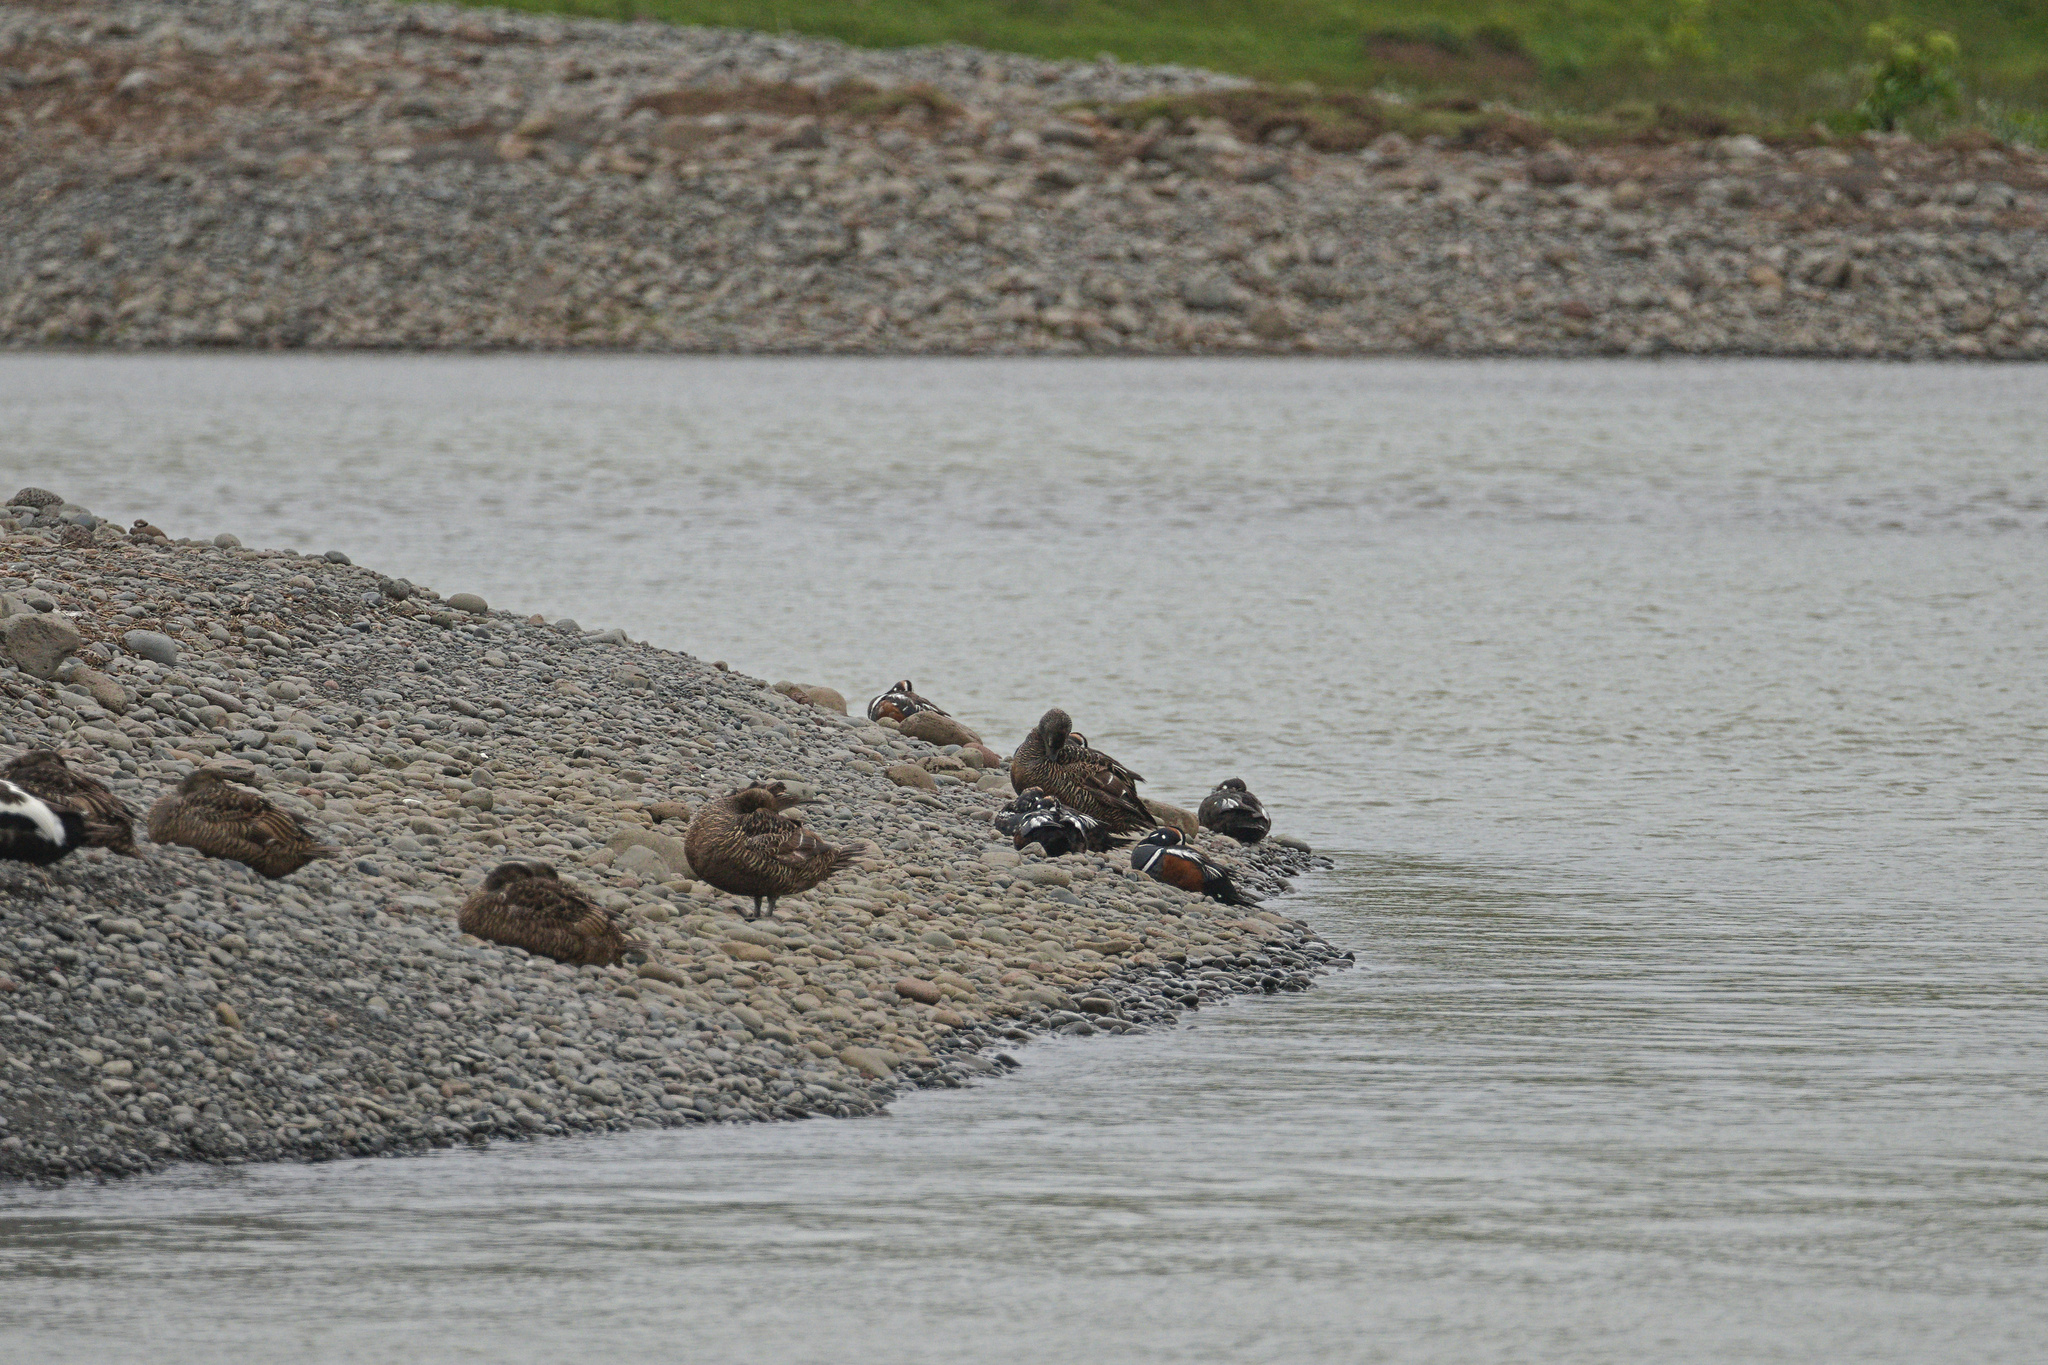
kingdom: Animalia
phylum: Chordata
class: Aves
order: Anseriformes
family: Anatidae
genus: Histrionicus
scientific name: Histrionicus histrionicus
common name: Harlequin duck
